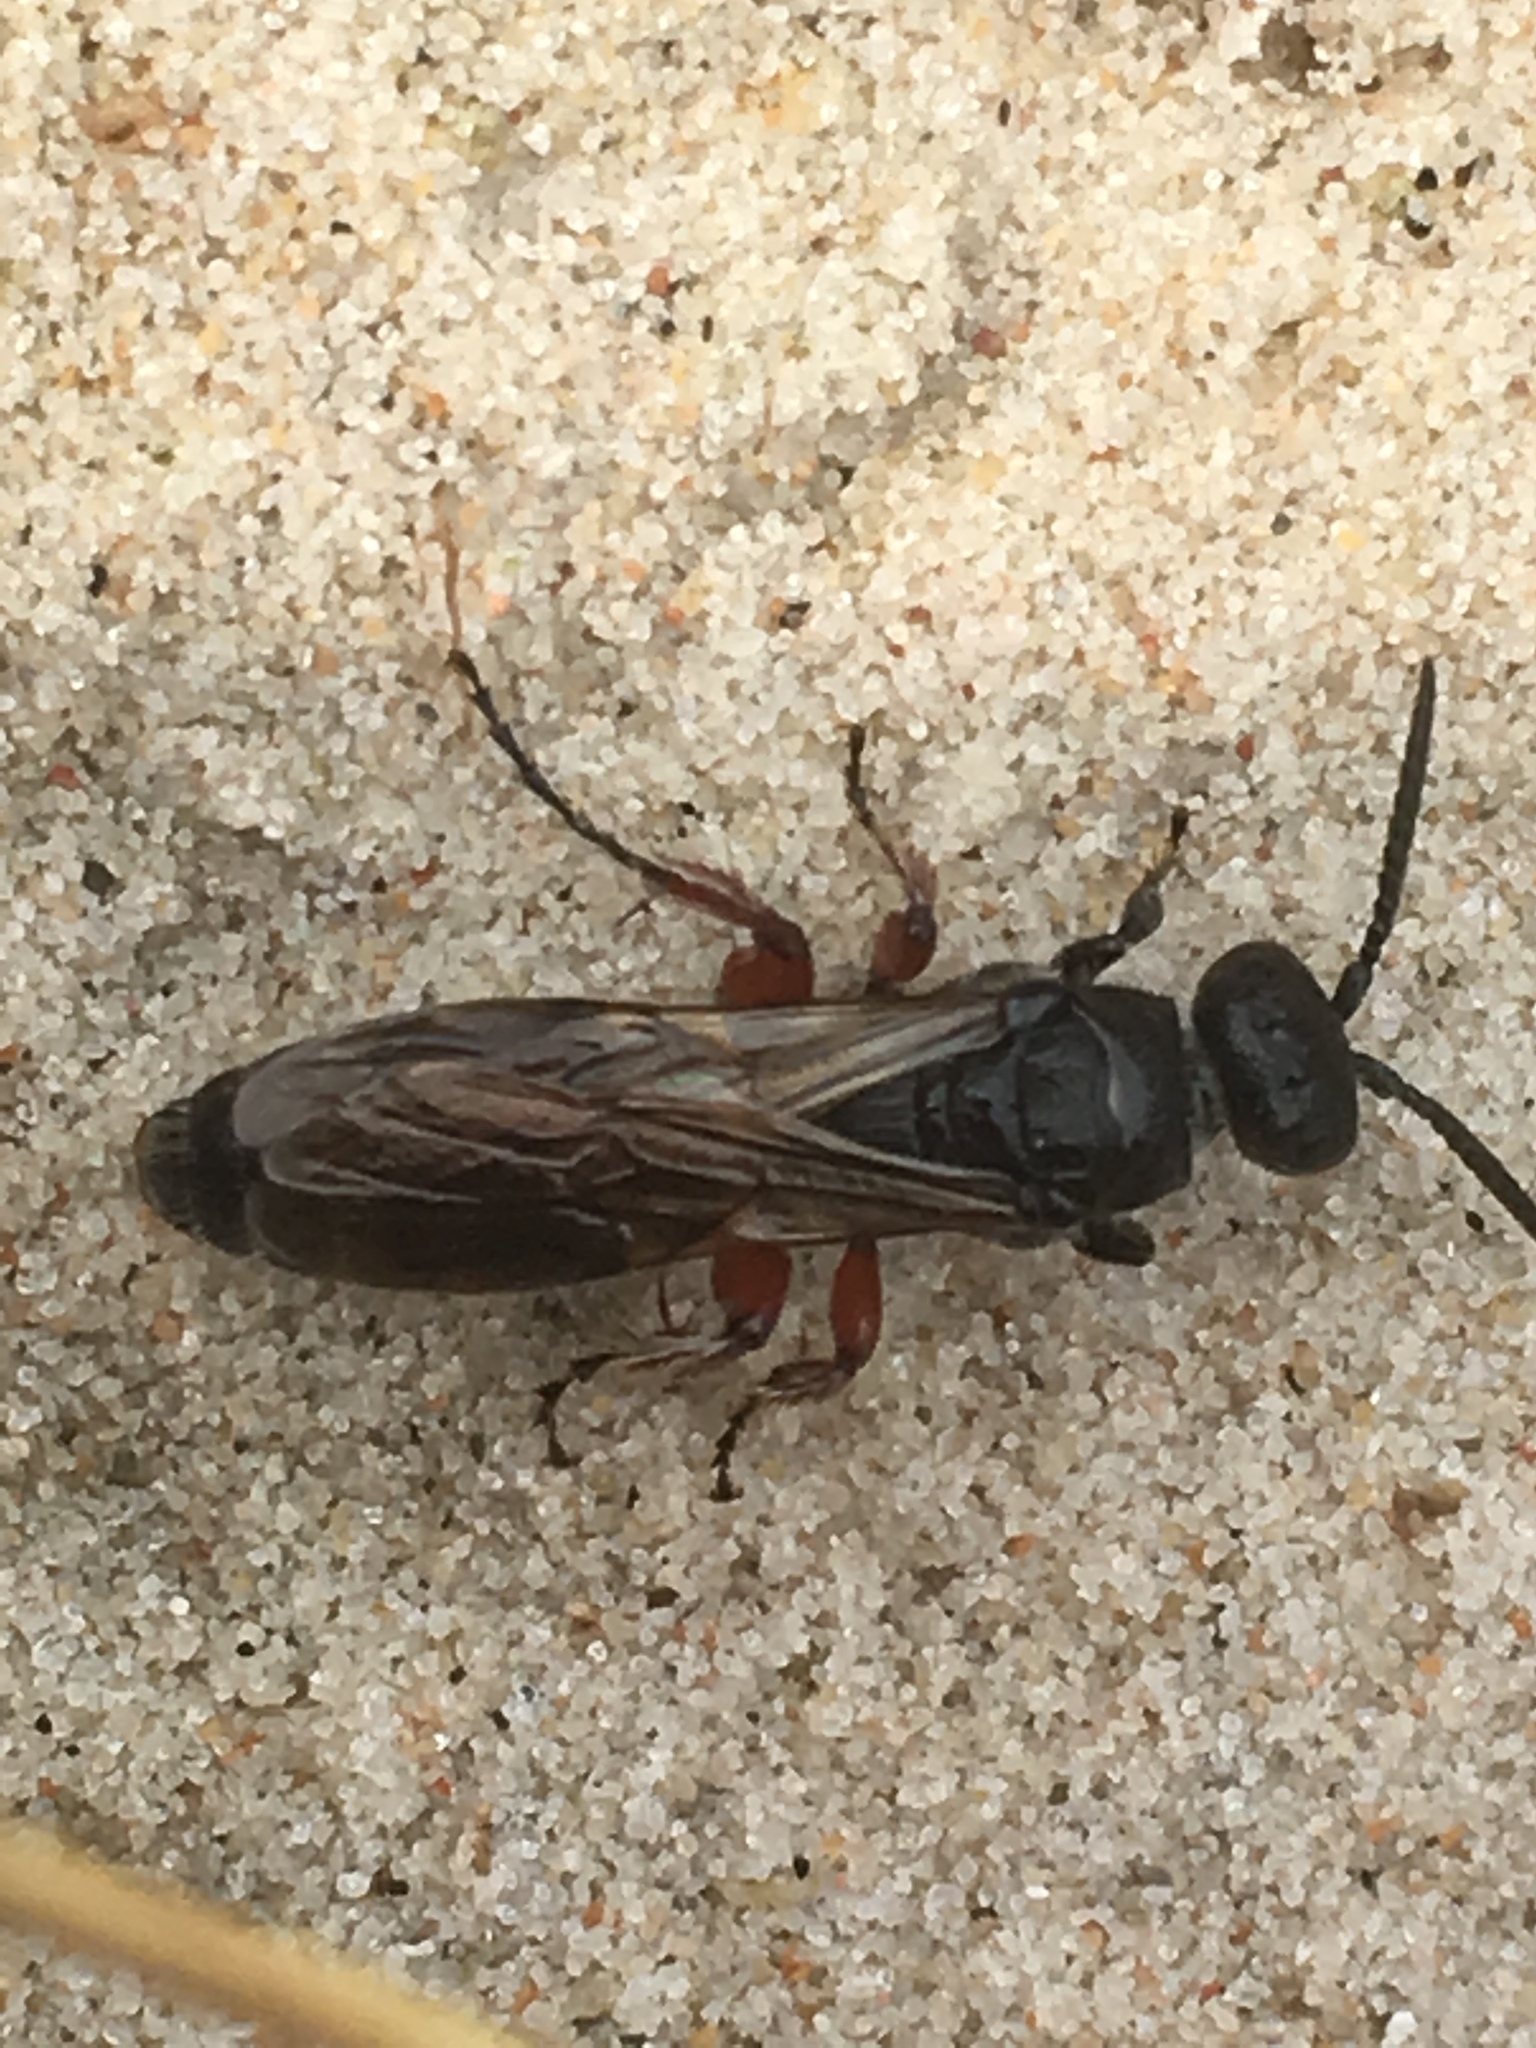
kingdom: Animalia
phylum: Arthropoda
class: Insecta
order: Hymenoptera
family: Tiphiidae
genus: Tiphia
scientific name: Tiphia femorata
